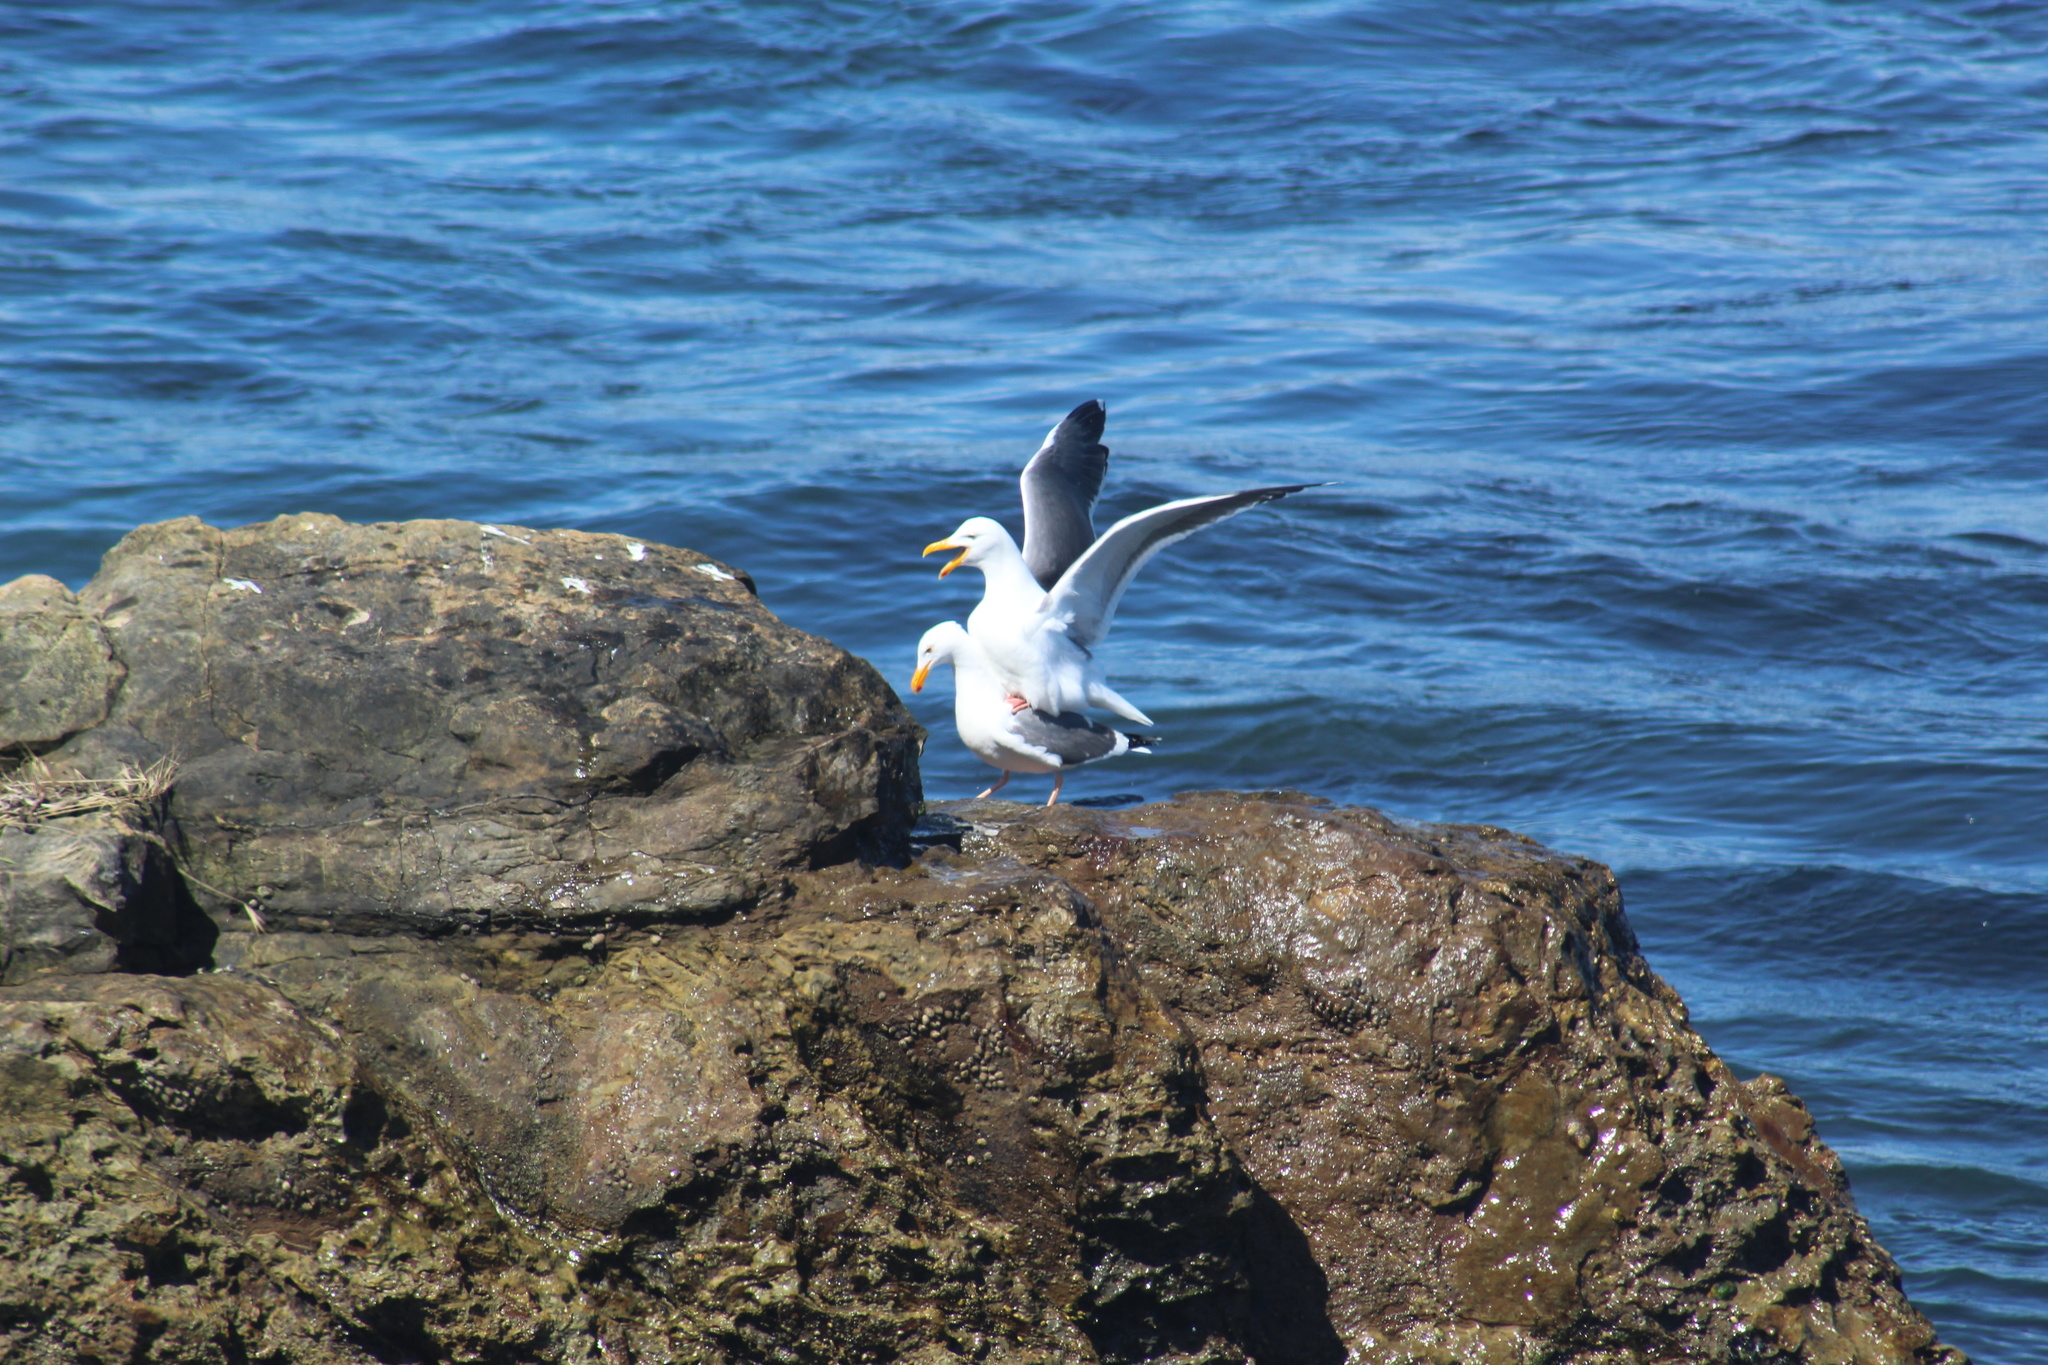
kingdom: Animalia
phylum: Chordata
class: Aves
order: Charadriiformes
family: Laridae
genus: Larus
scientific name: Larus occidentalis
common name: Western gull
